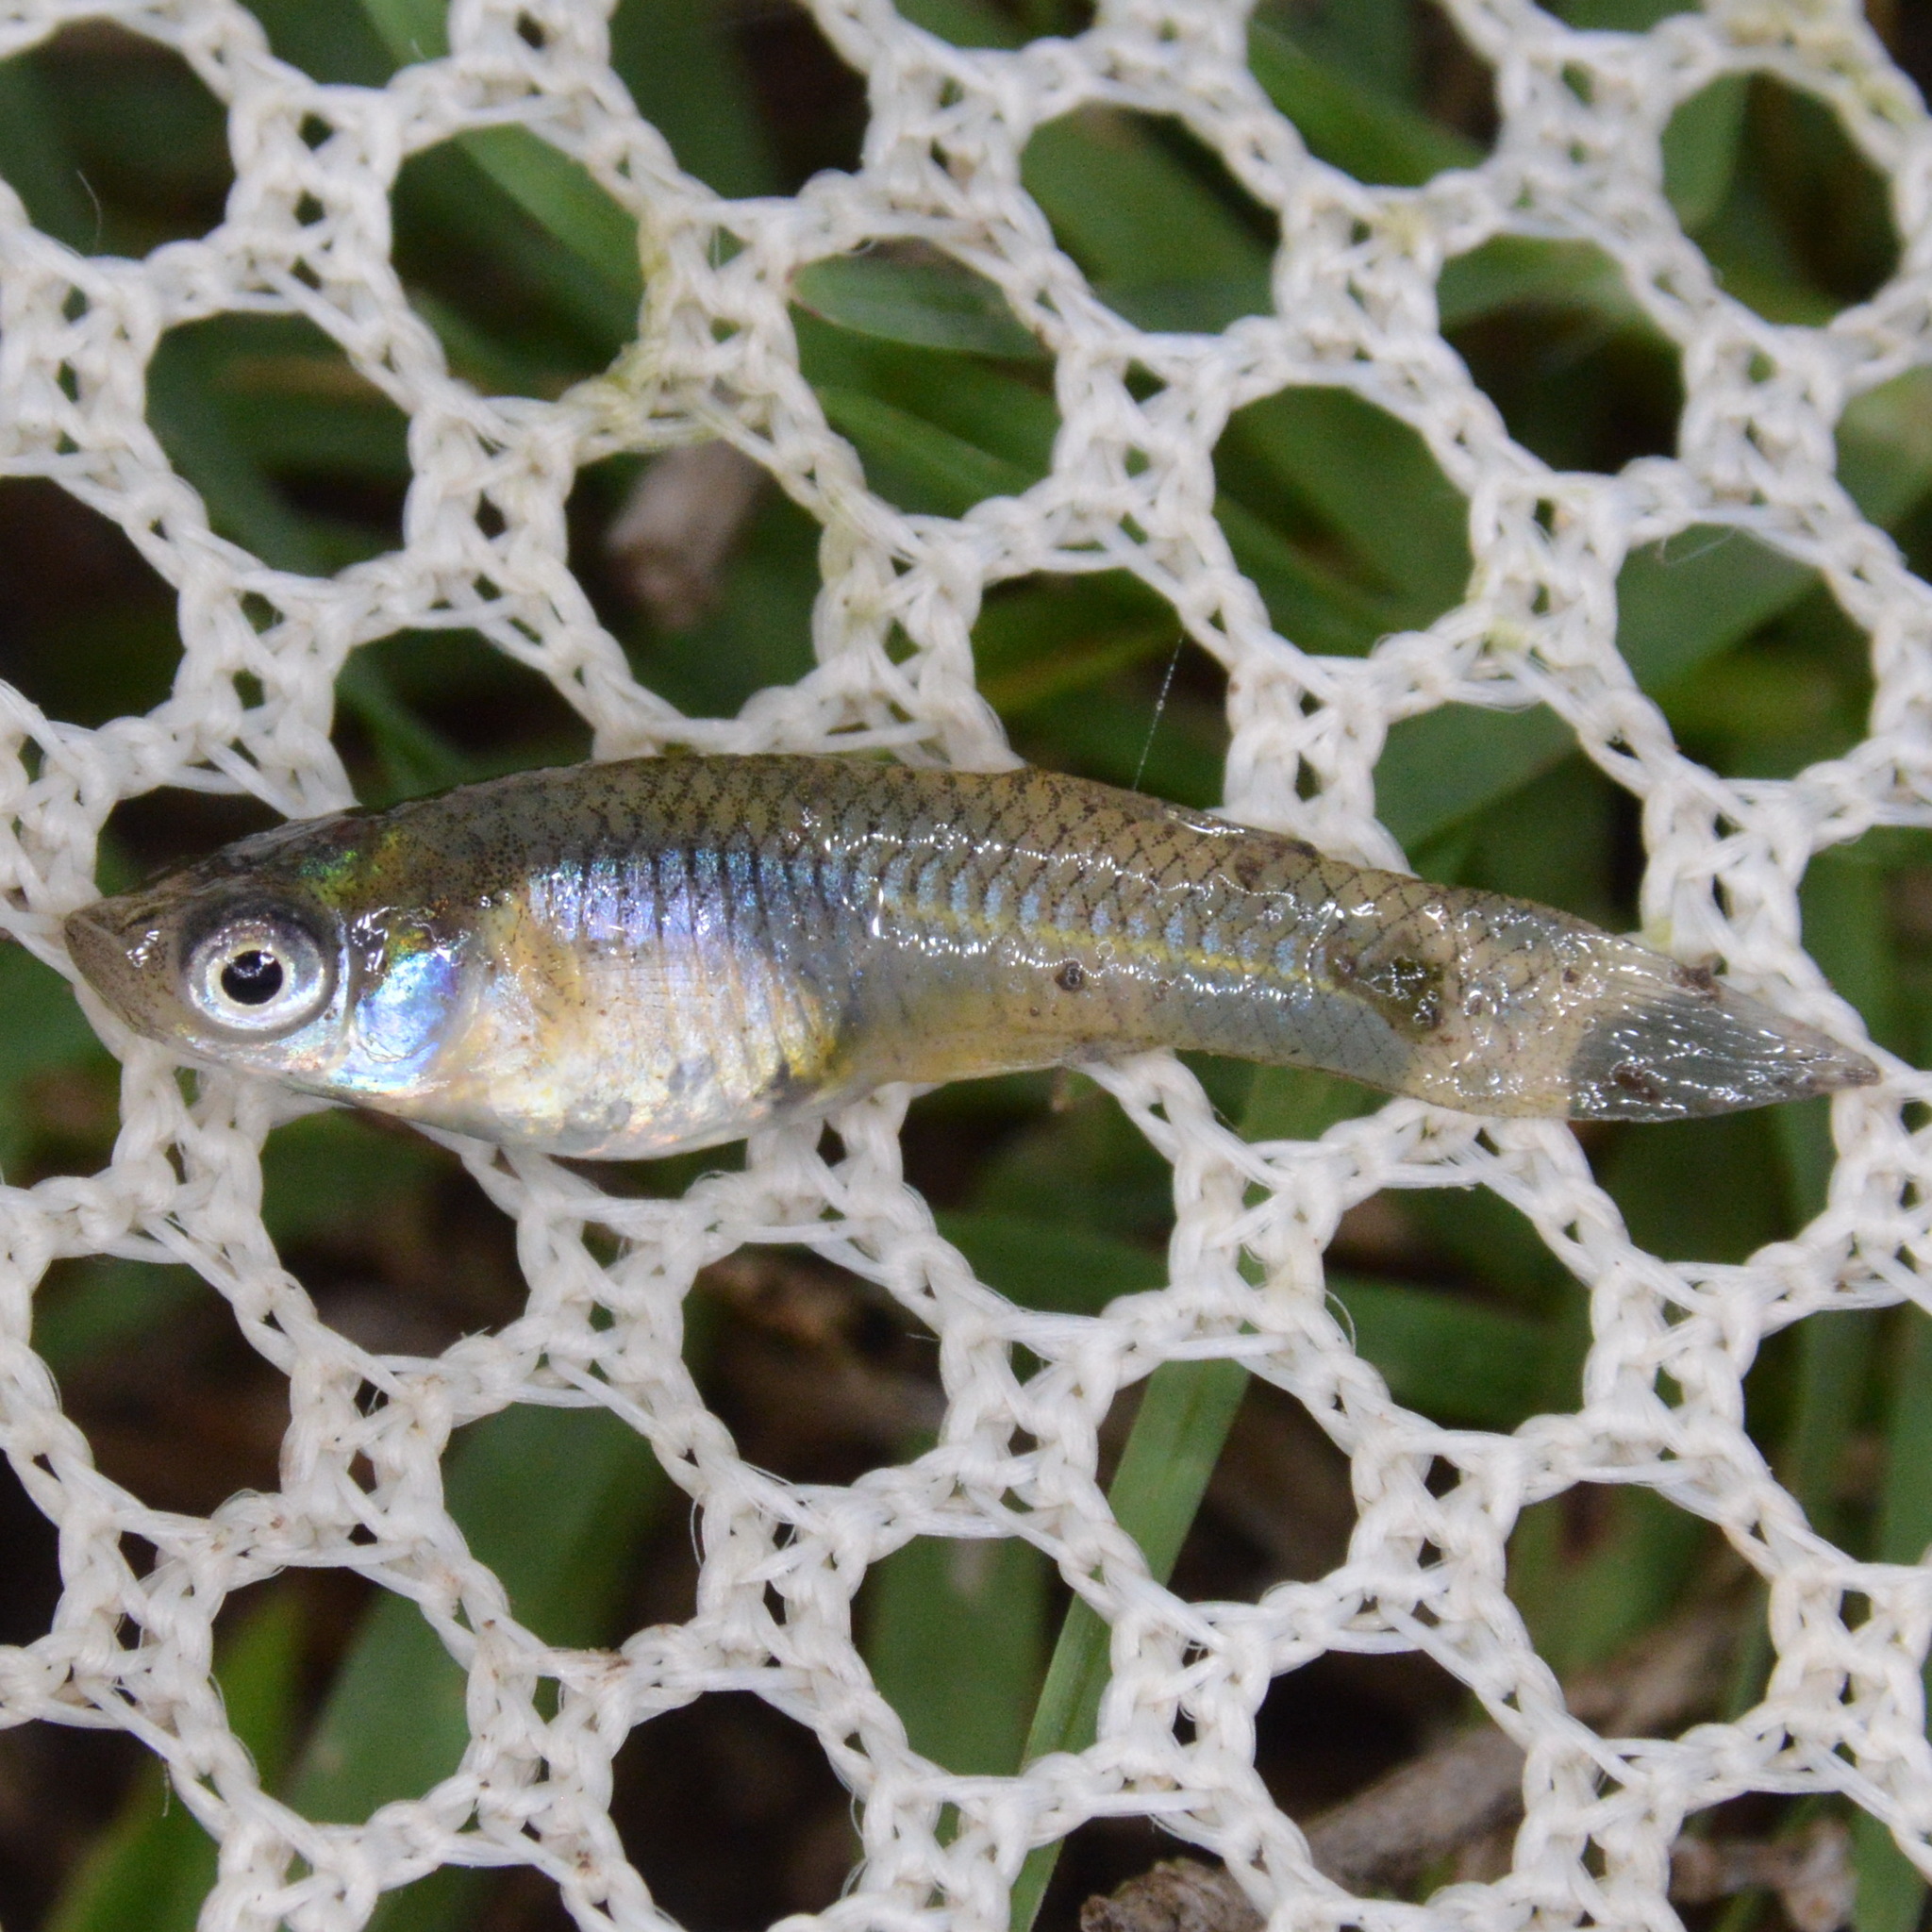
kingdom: Animalia
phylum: Chordata
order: Cyprinodontiformes
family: Poeciliidae
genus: Gambusia
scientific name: Gambusia affinis
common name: Mosquitofish
